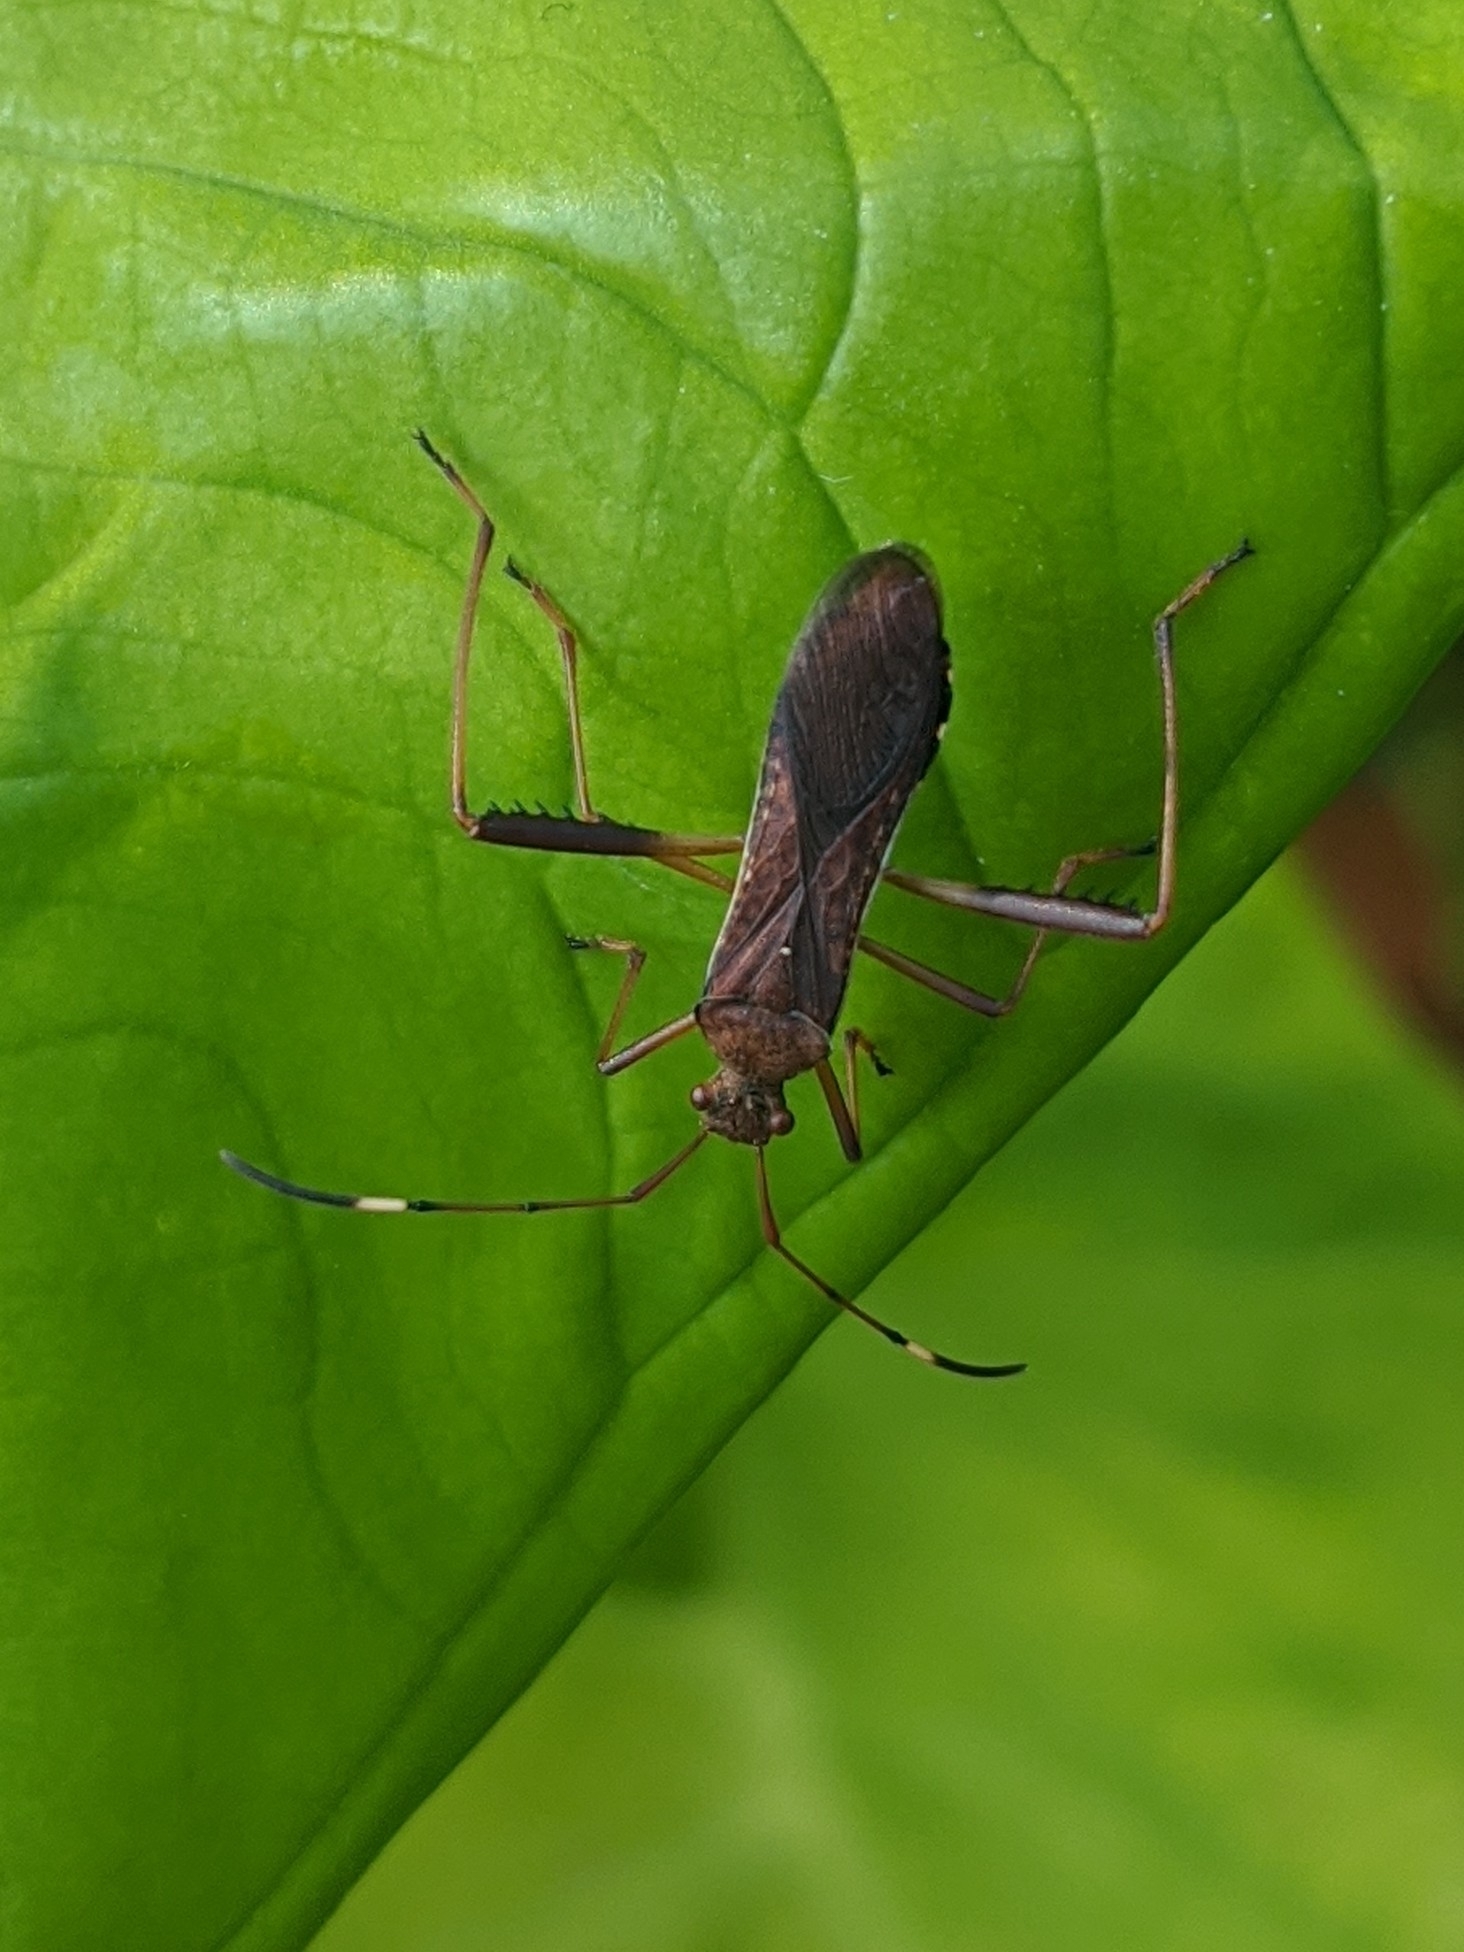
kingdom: Animalia
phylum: Arthropoda
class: Insecta
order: Hemiptera
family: Alydidae
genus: Megalotomus
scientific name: Megalotomus quinquespinosus
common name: Lupine bug
